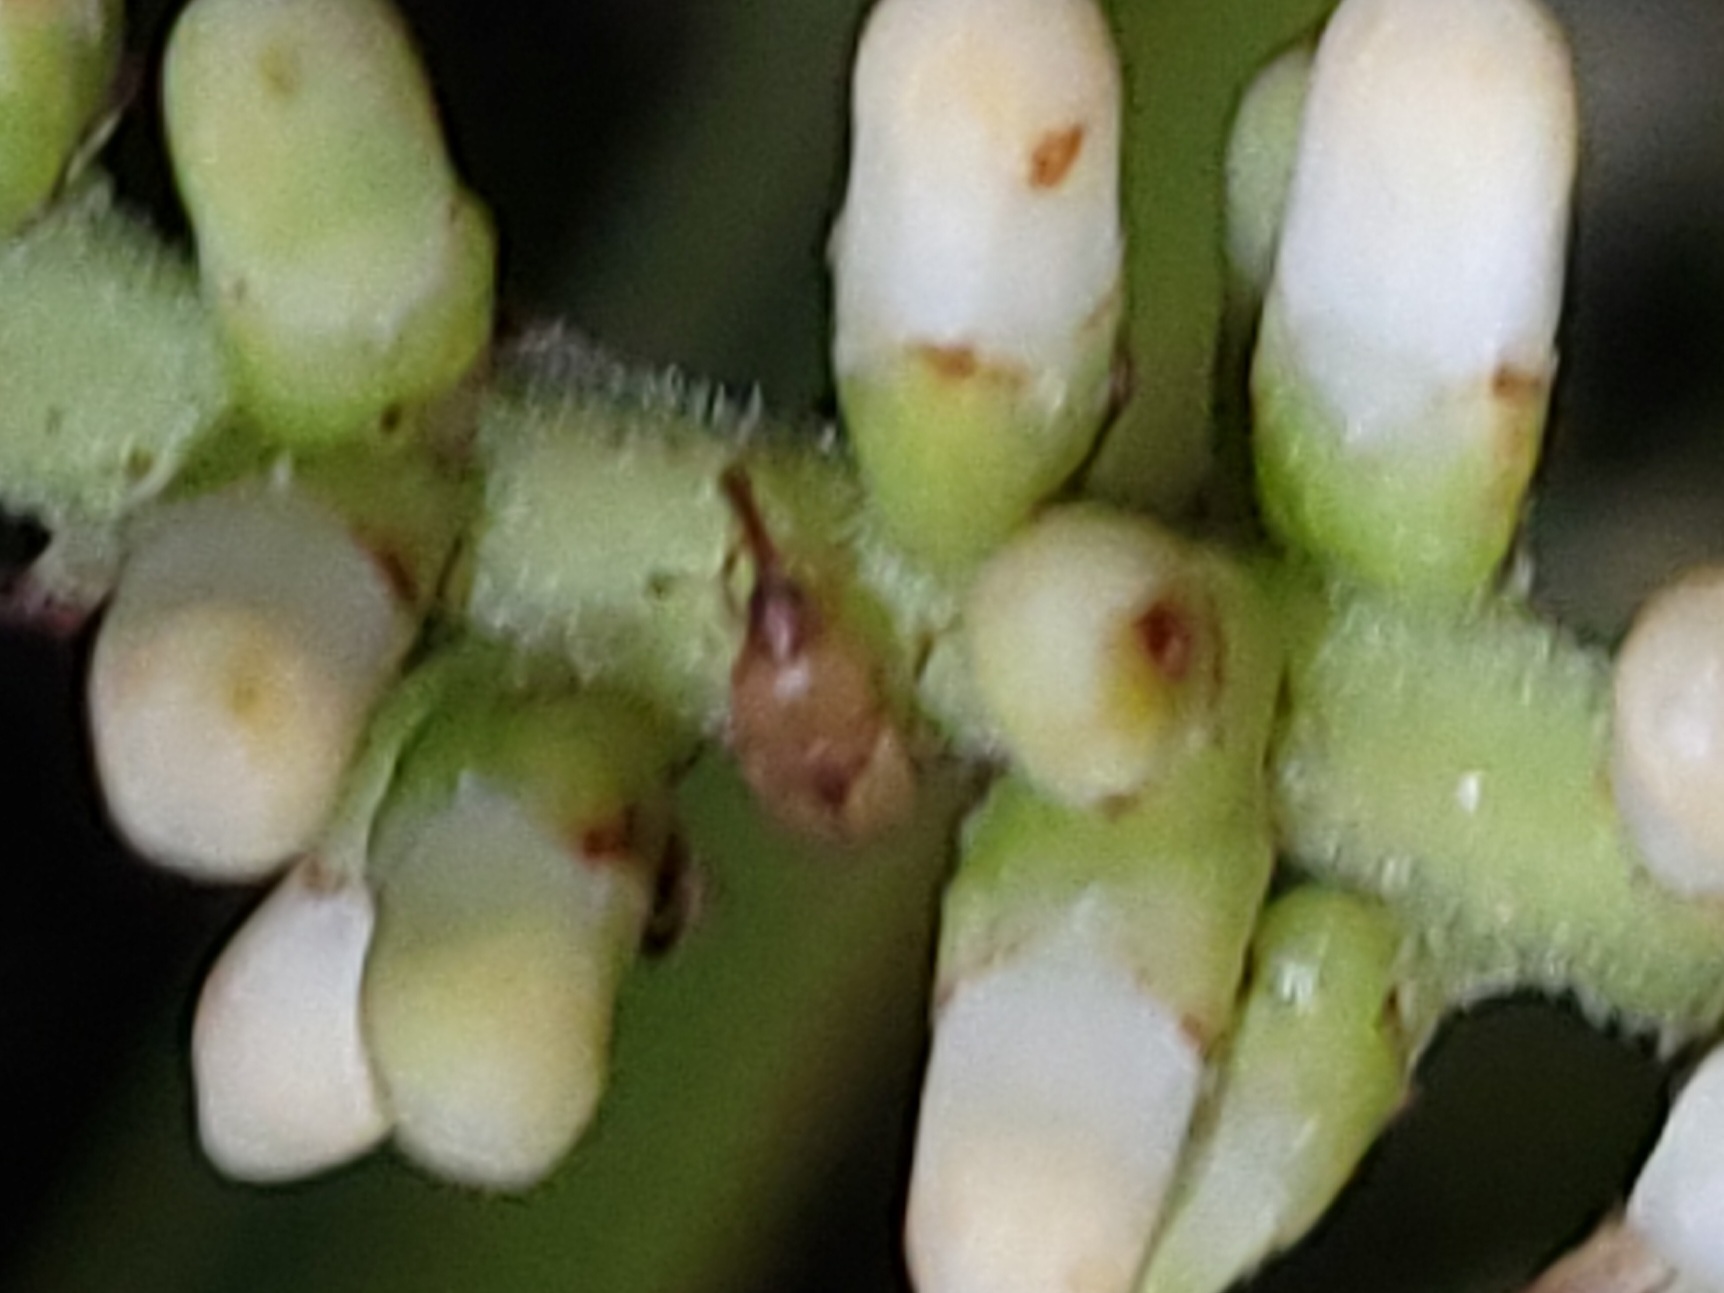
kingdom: Animalia
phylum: Arthropoda
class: Insecta
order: Coleoptera
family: Curculionidae
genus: Notolomus
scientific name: Notolomus basalis
